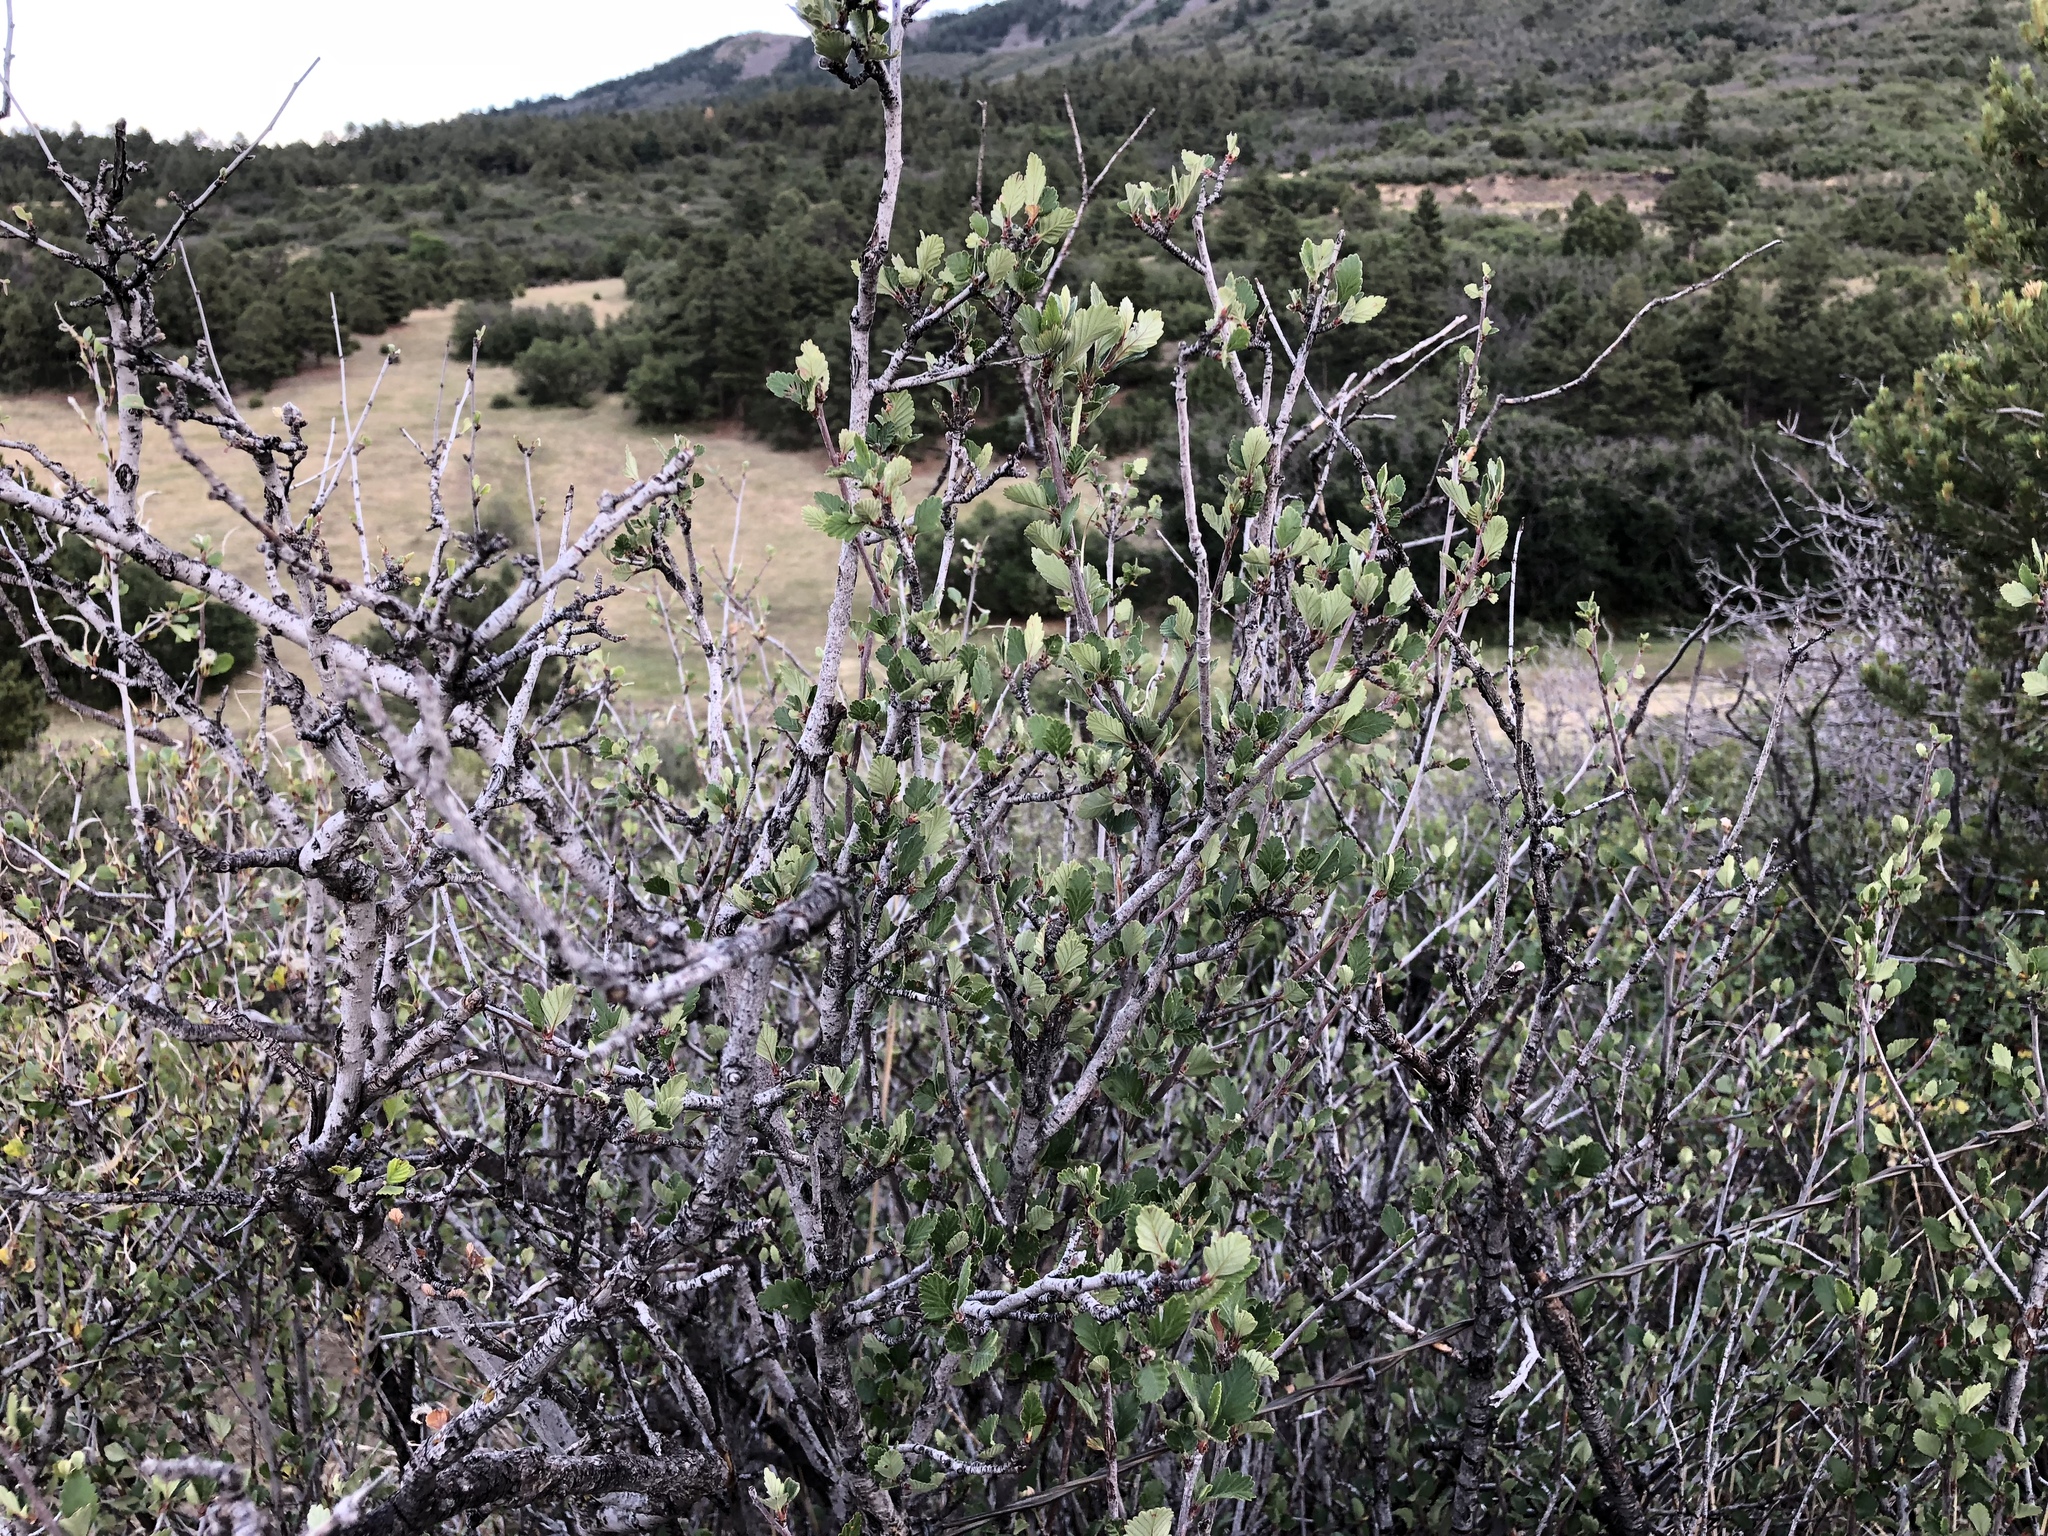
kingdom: Plantae
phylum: Tracheophyta
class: Magnoliopsida
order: Rosales
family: Rosaceae
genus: Cercocarpus
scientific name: Cercocarpus montanus
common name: Alder-leaf cercocarpus
